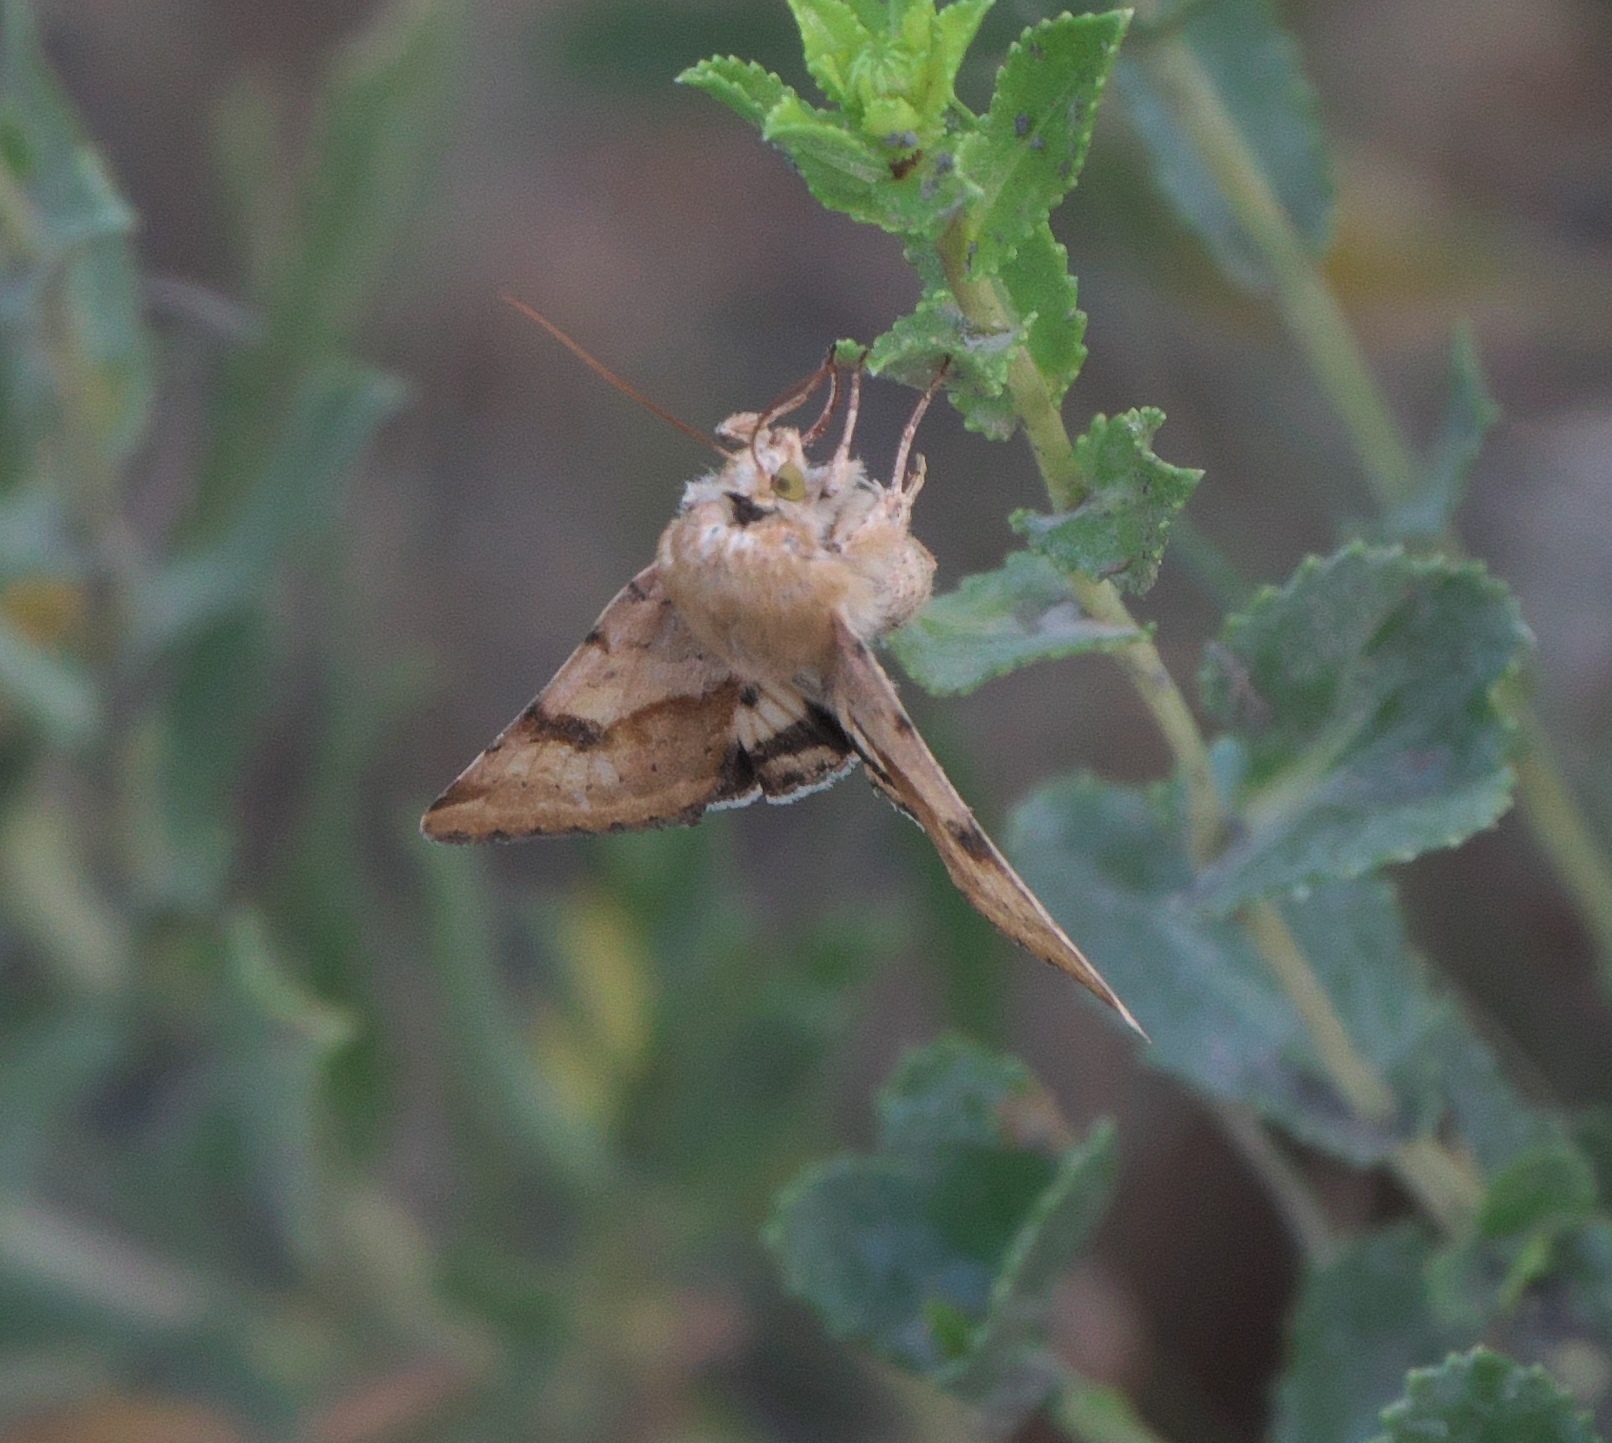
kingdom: Animalia
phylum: Arthropoda
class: Insecta
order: Lepidoptera
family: Noctuidae
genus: Heliothis
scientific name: Heliothis phloxiphaga
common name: Darker spotted straw moth
